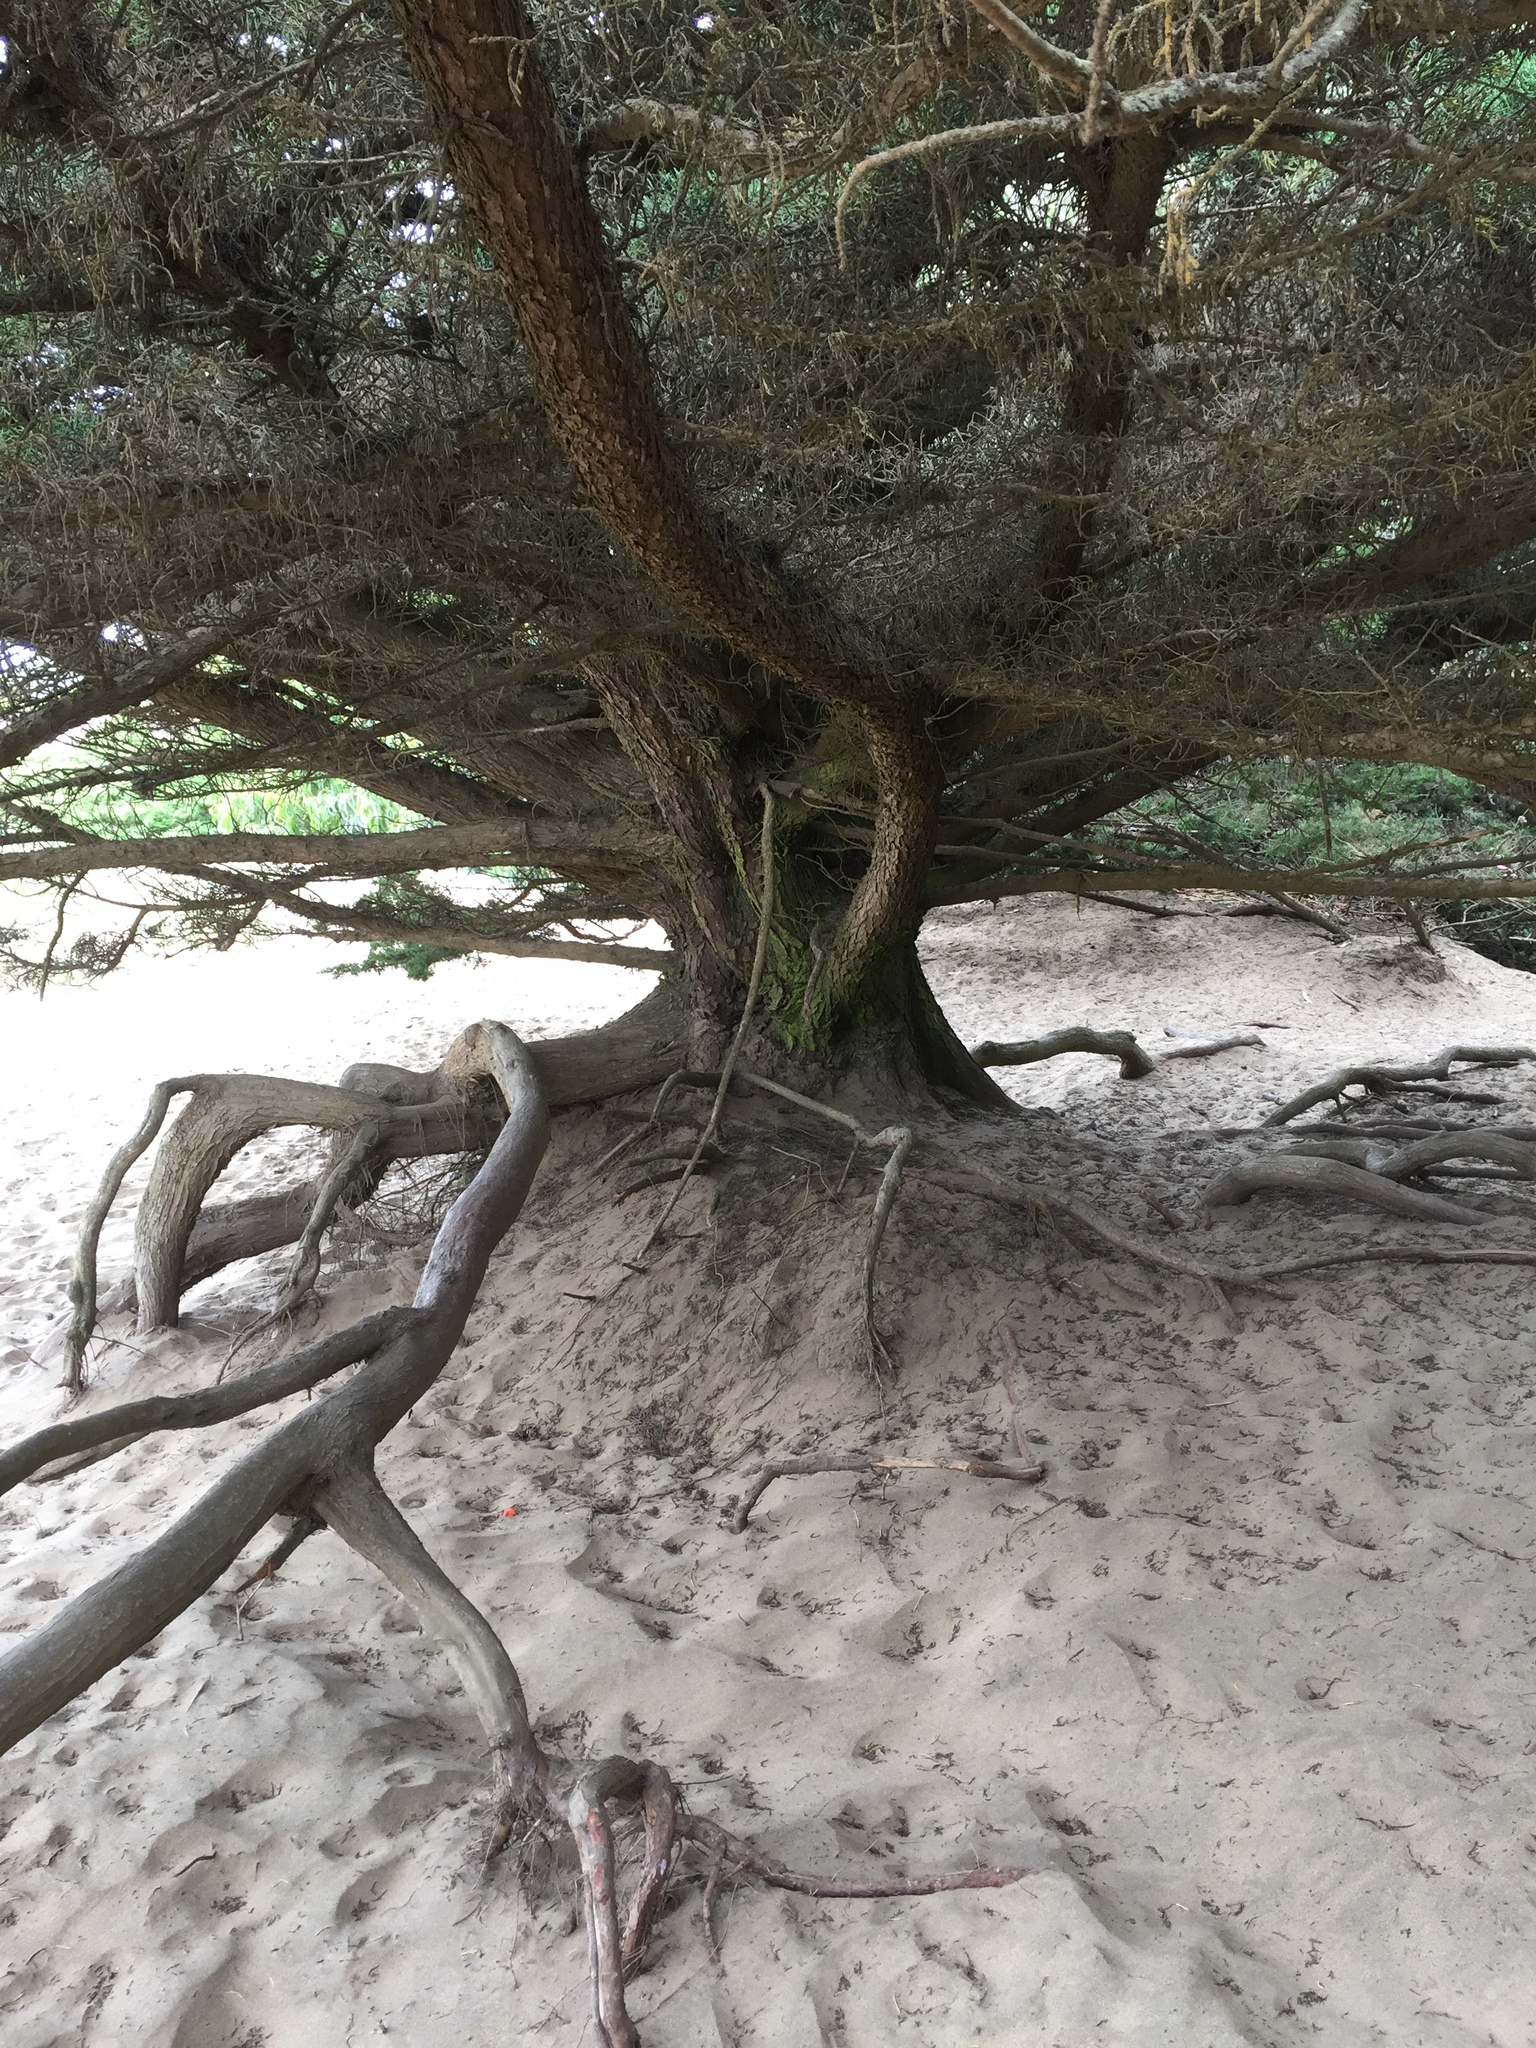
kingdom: Plantae
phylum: Tracheophyta
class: Pinopsida
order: Pinales
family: Cupressaceae
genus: Cupressus
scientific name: Cupressus macrocarpa
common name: Monterey cypress
